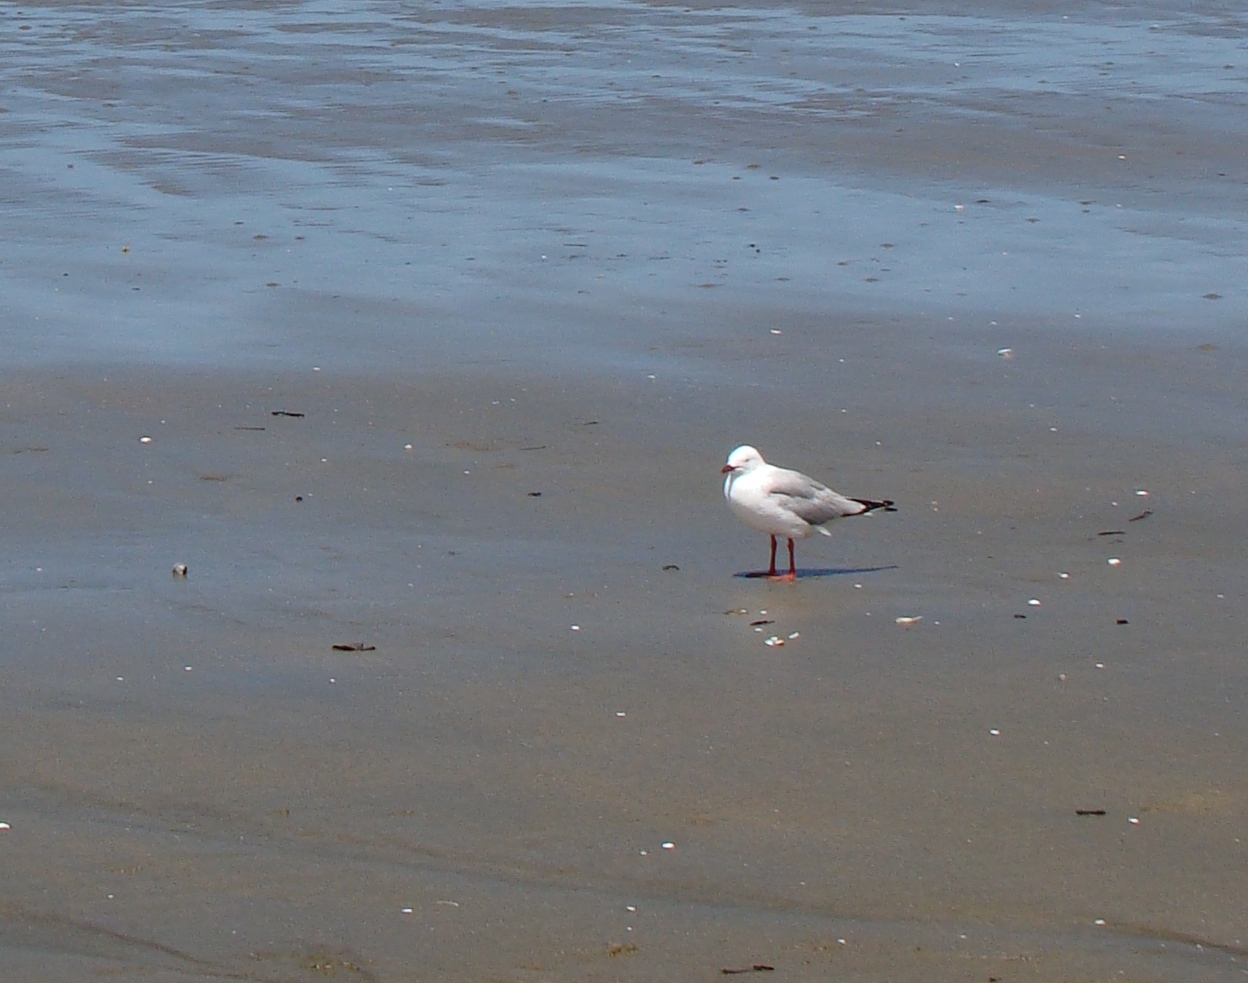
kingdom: Animalia
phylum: Chordata
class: Aves
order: Charadriiformes
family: Laridae
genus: Chroicocephalus
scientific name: Chroicocephalus novaehollandiae
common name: Silver gull
